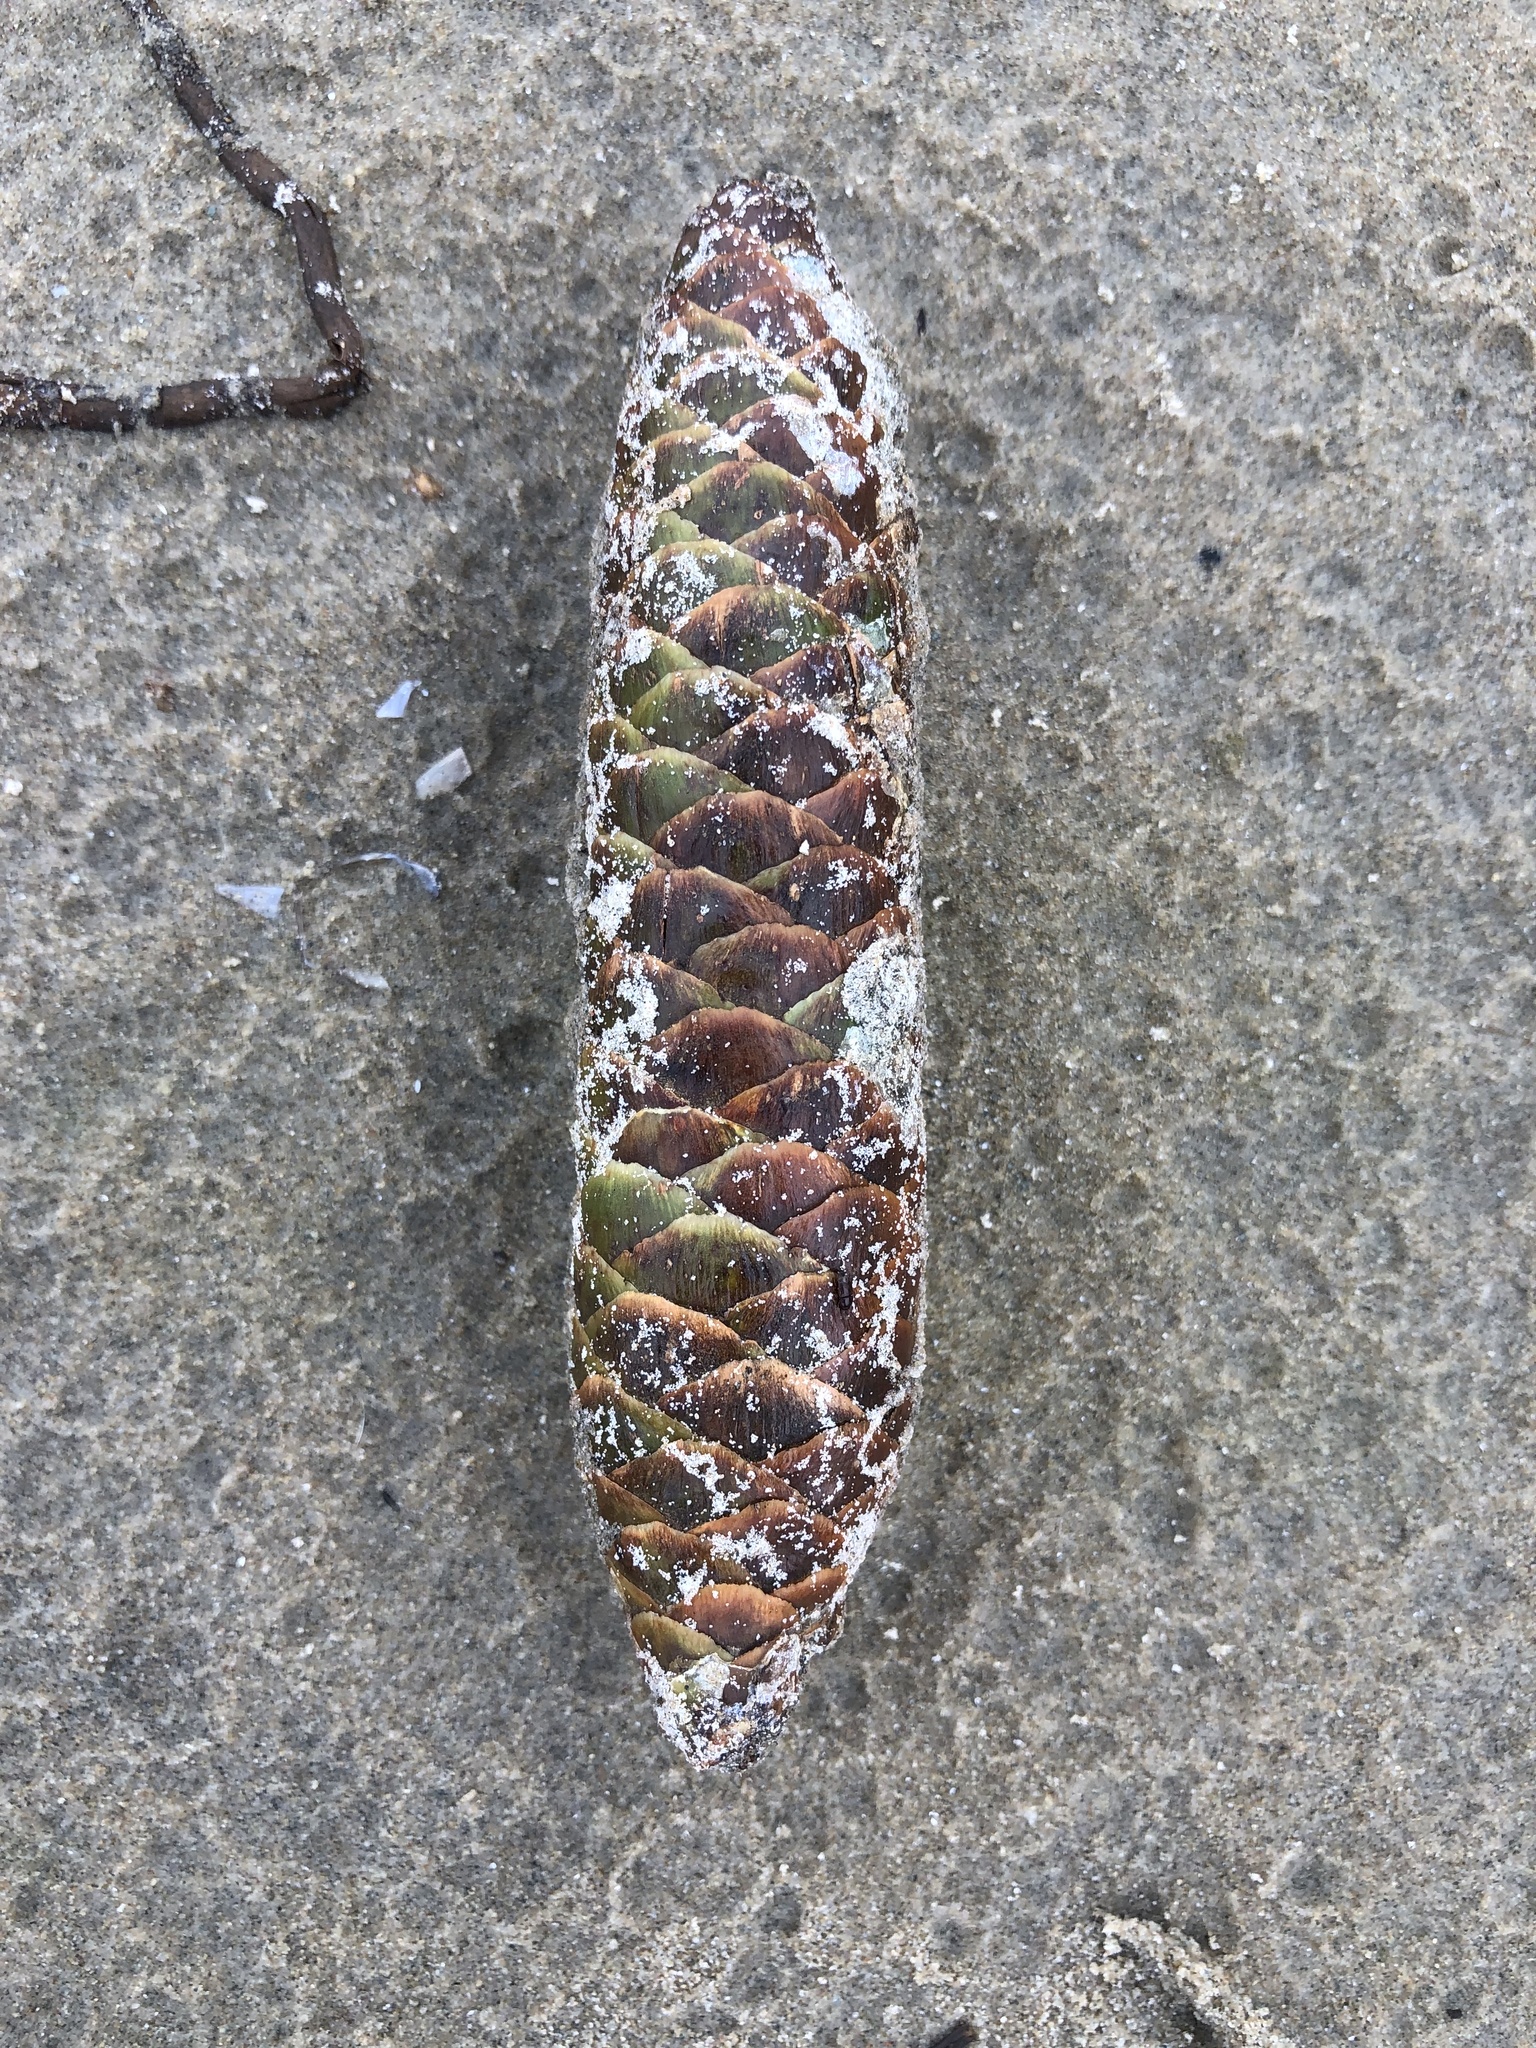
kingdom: Plantae
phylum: Tracheophyta
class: Pinopsida
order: Pinales
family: Pinaceae
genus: Picea
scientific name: Picea abies
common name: Norway spruce
